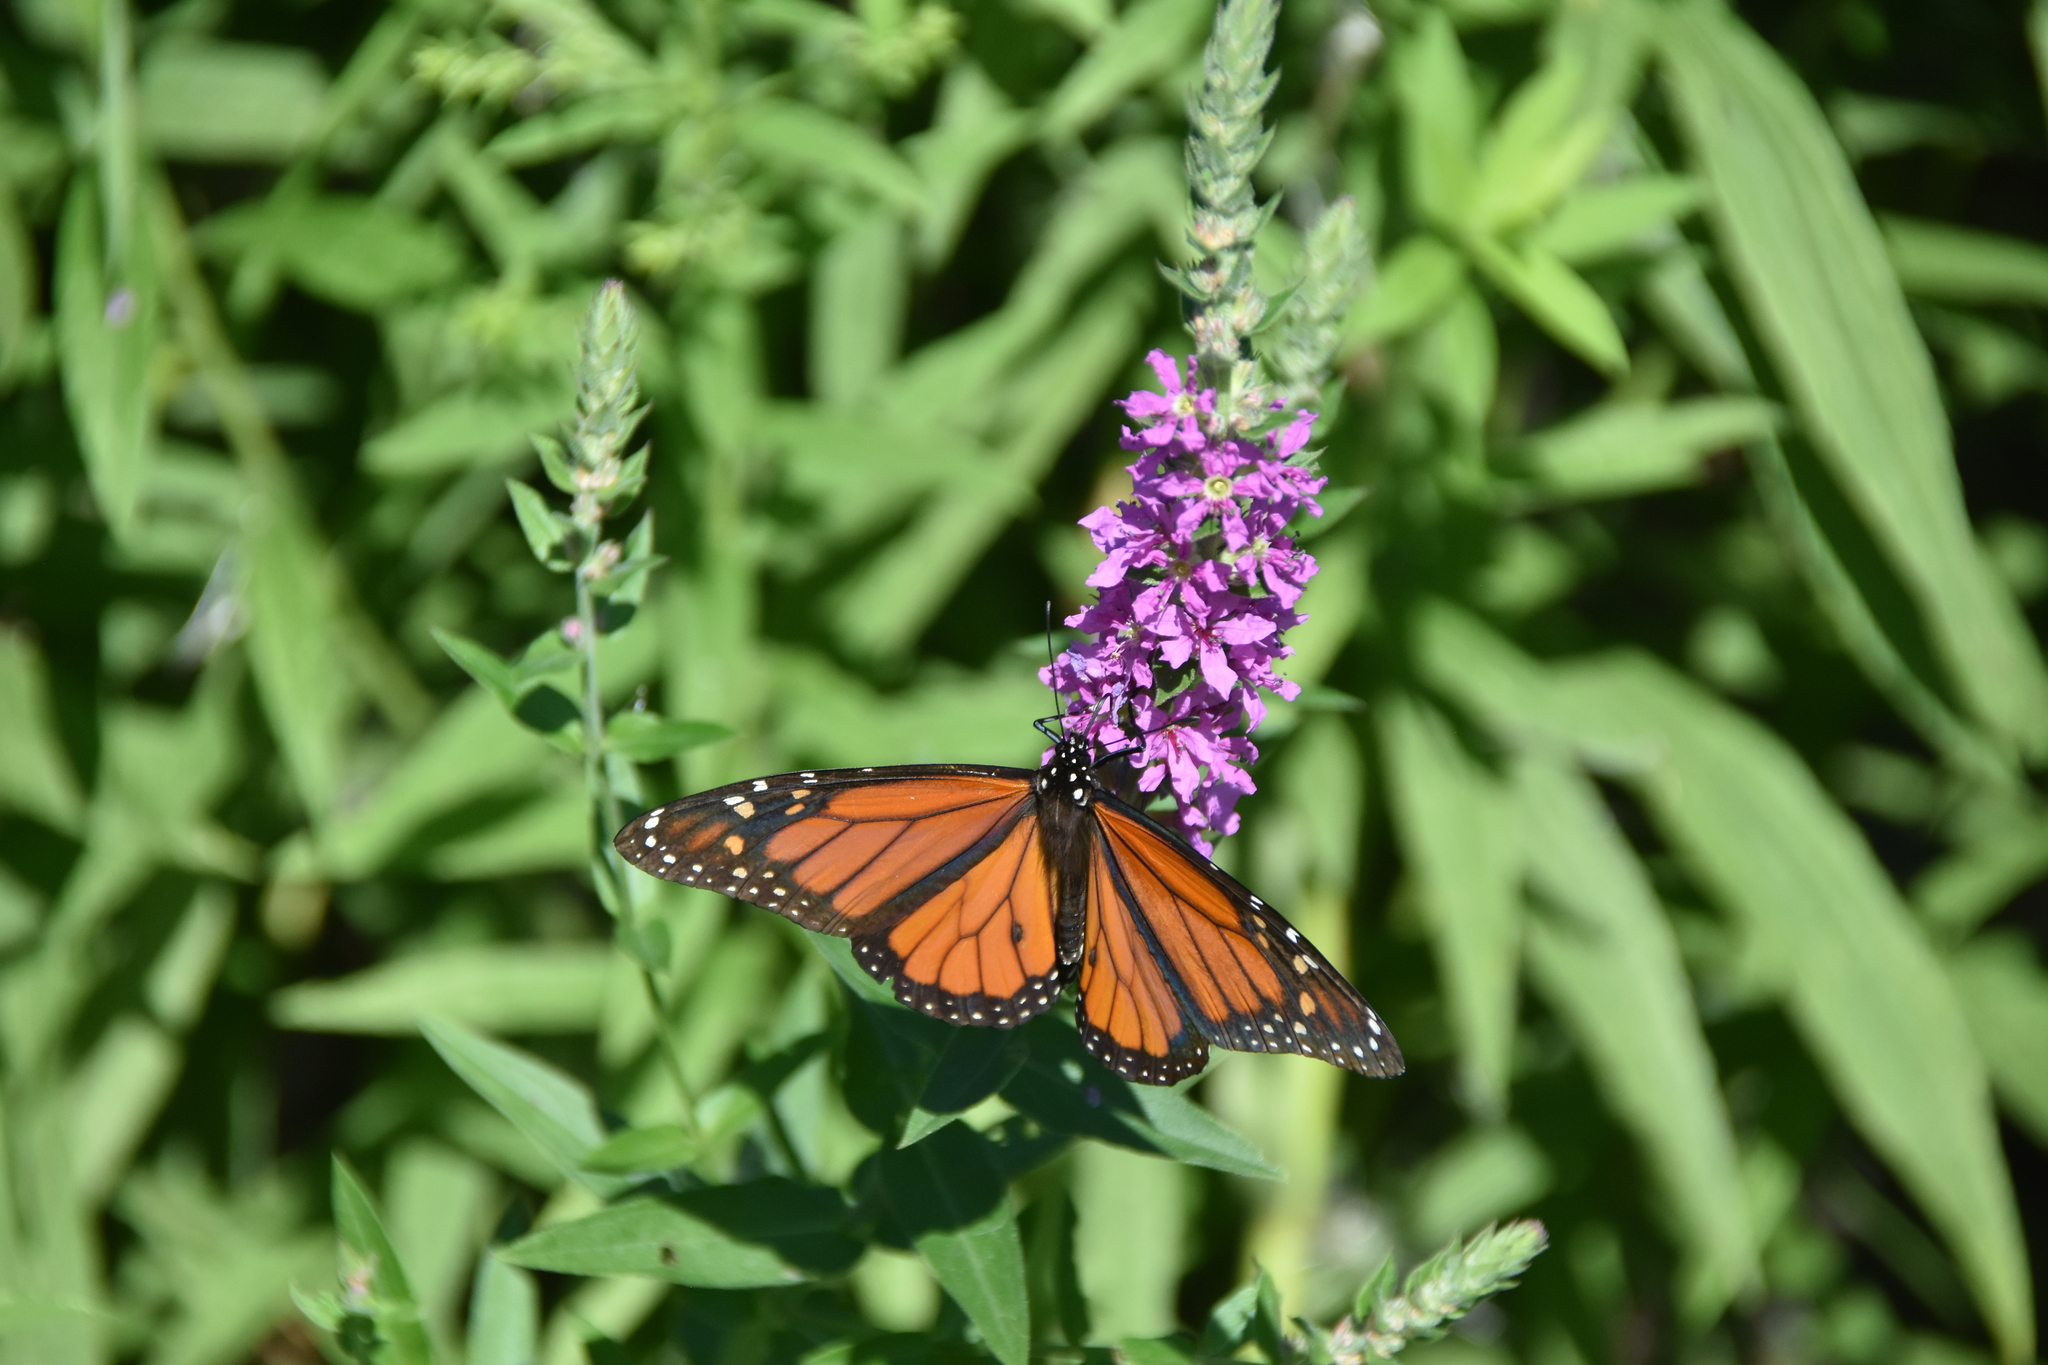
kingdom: Animalia
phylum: Arthropoda
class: Insecta
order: Lepidoptera
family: Nymphalidae
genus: Danaus
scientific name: Danaus plexippus
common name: Monarch
